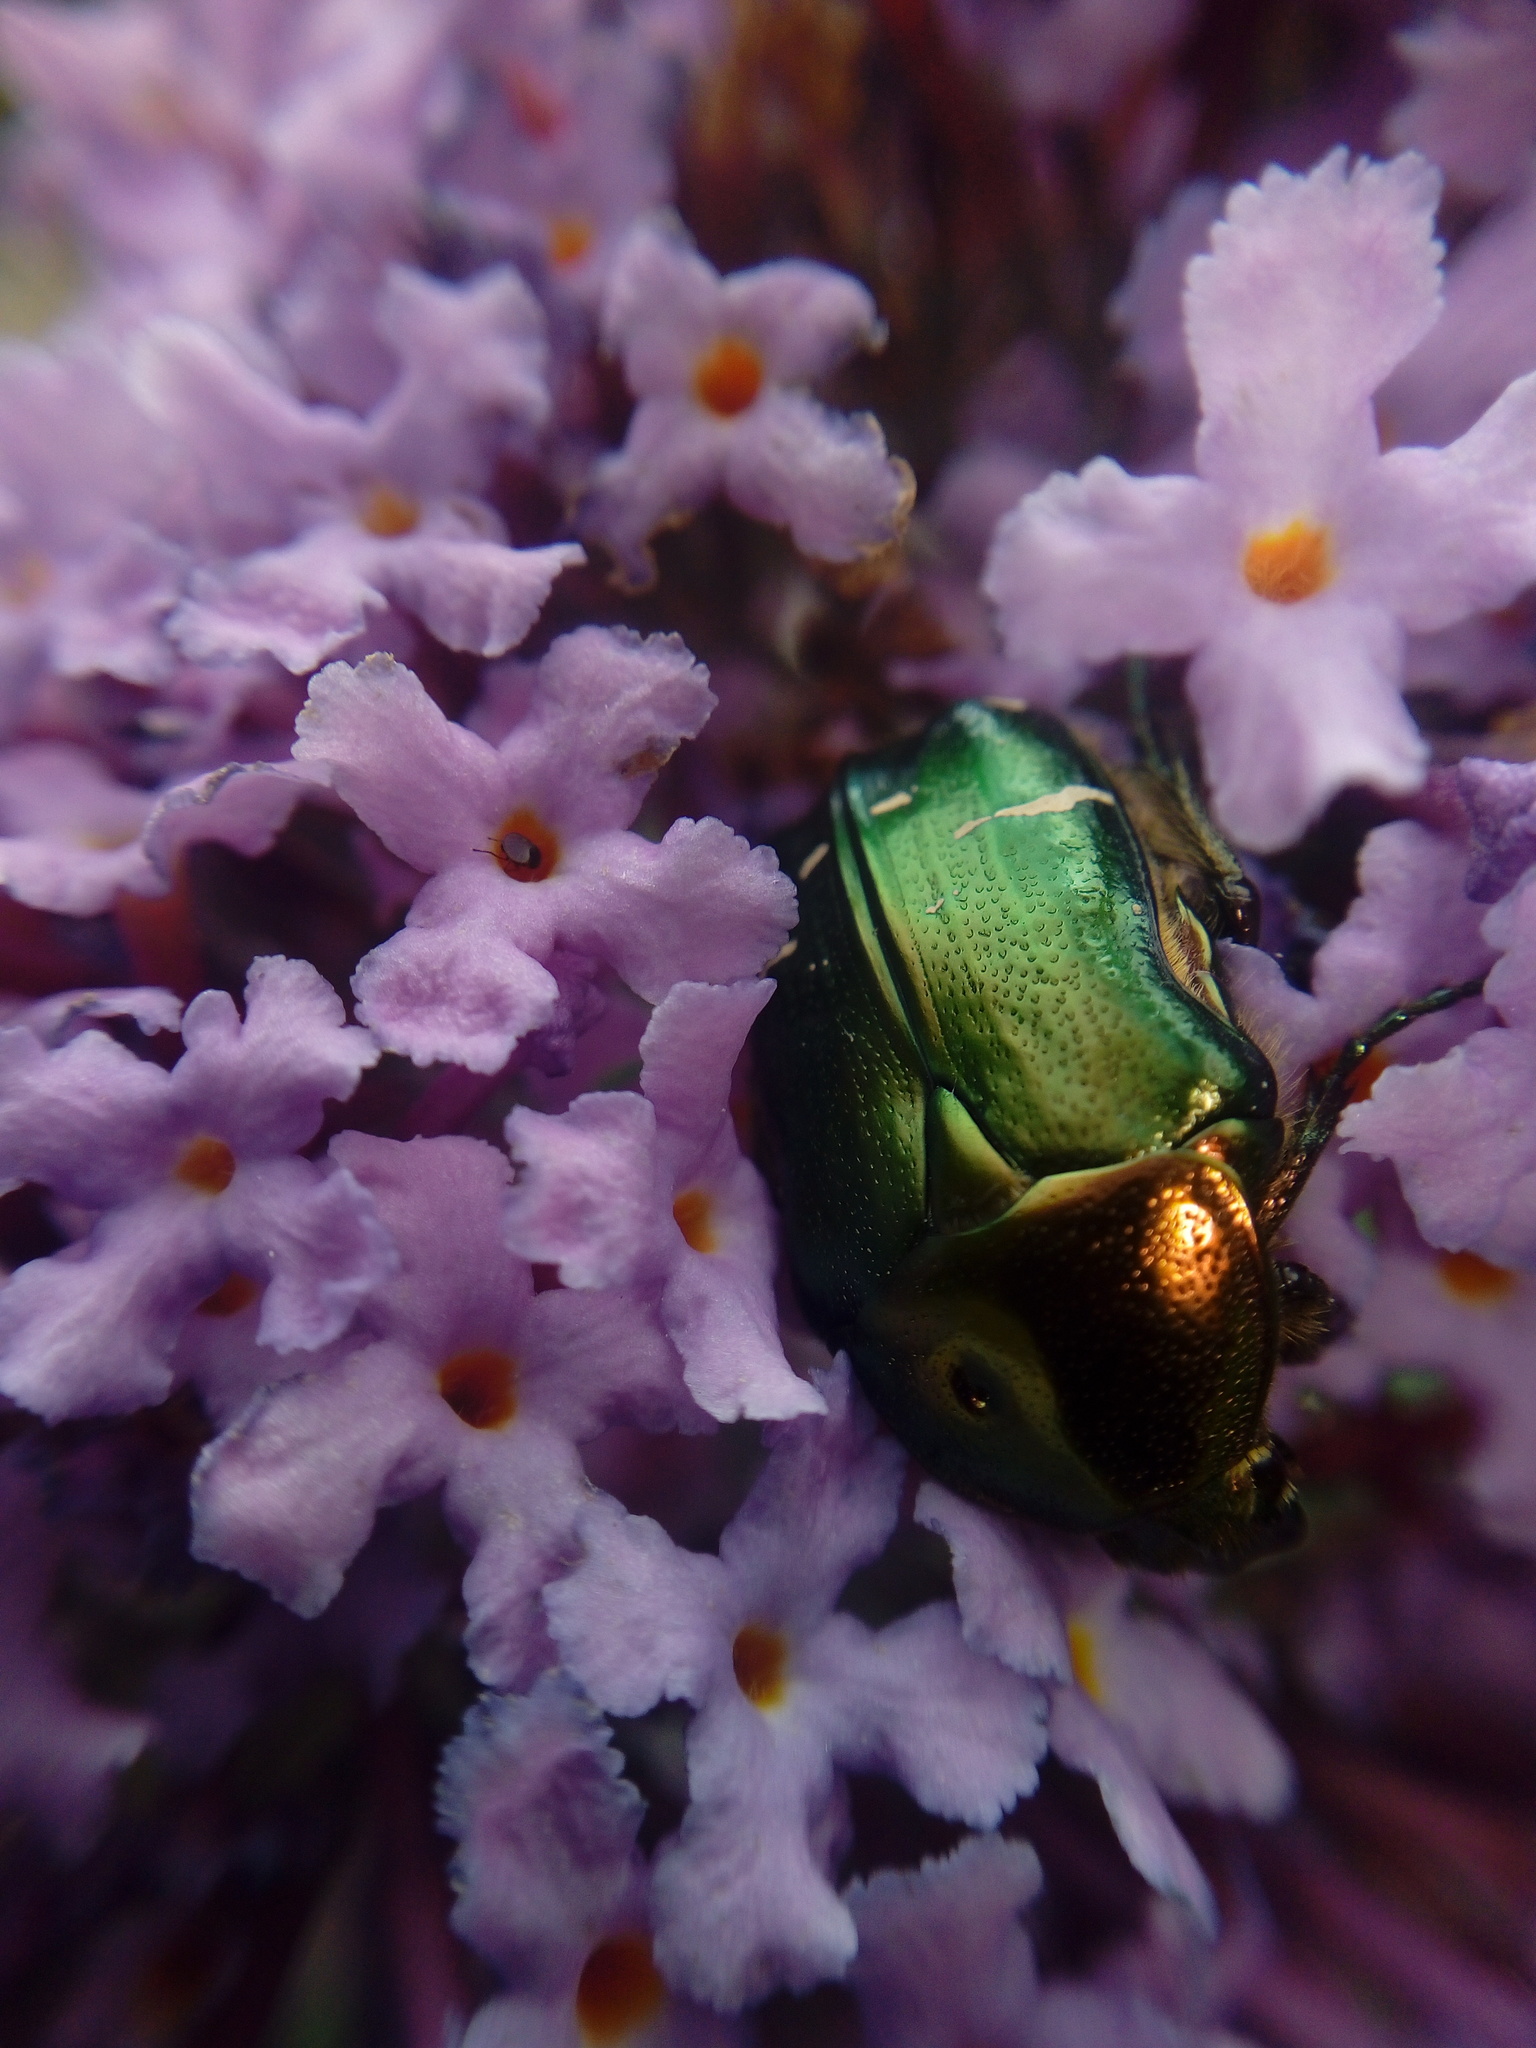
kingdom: Animalia
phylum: Arthropoda
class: Insecta
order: Coleoptera
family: Scarabaeidae
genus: Cetonia
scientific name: Cetonia aurata
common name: Rose chafer
